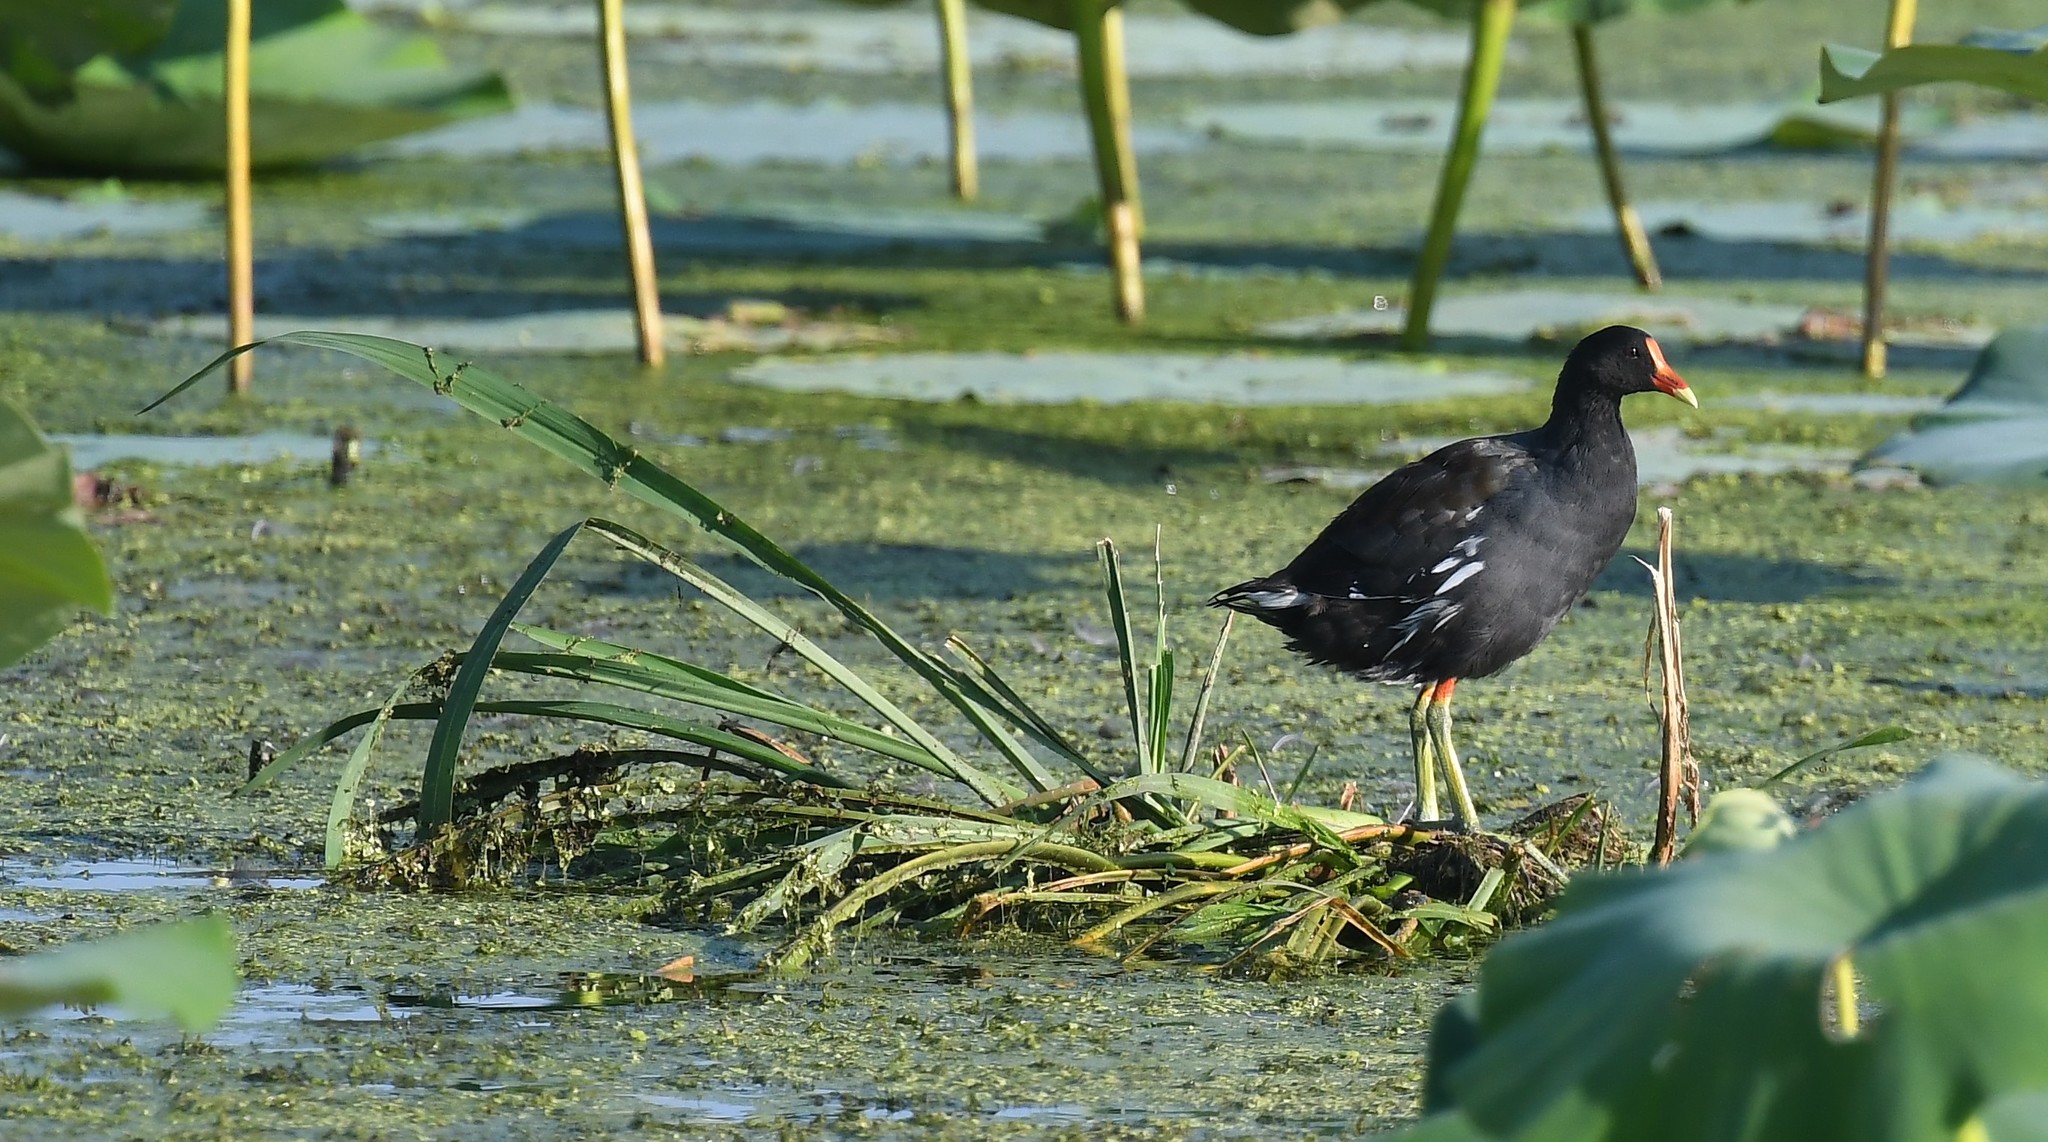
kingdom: Animalia
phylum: Chordata
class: Aves
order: Gruiformes
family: Rallidae
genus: Gallinula
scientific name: Gallinula chloropus
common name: Common moorhen
